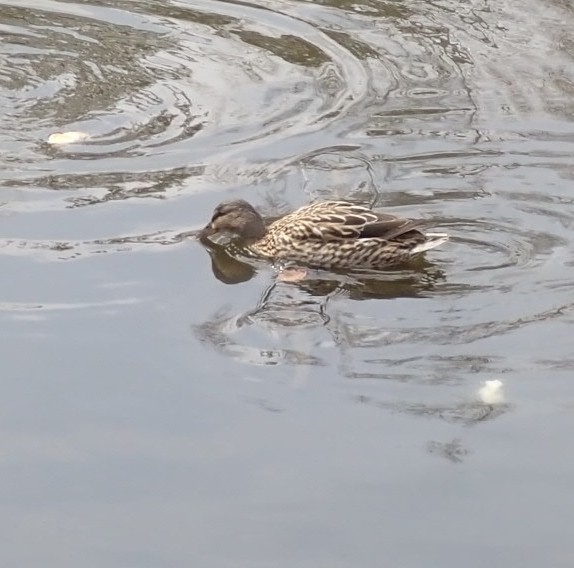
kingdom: Animalia
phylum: Chordata
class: Aves
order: Anseriformes
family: Anatidae
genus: Anas
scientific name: Anas platyrhynchos
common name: Mallard
